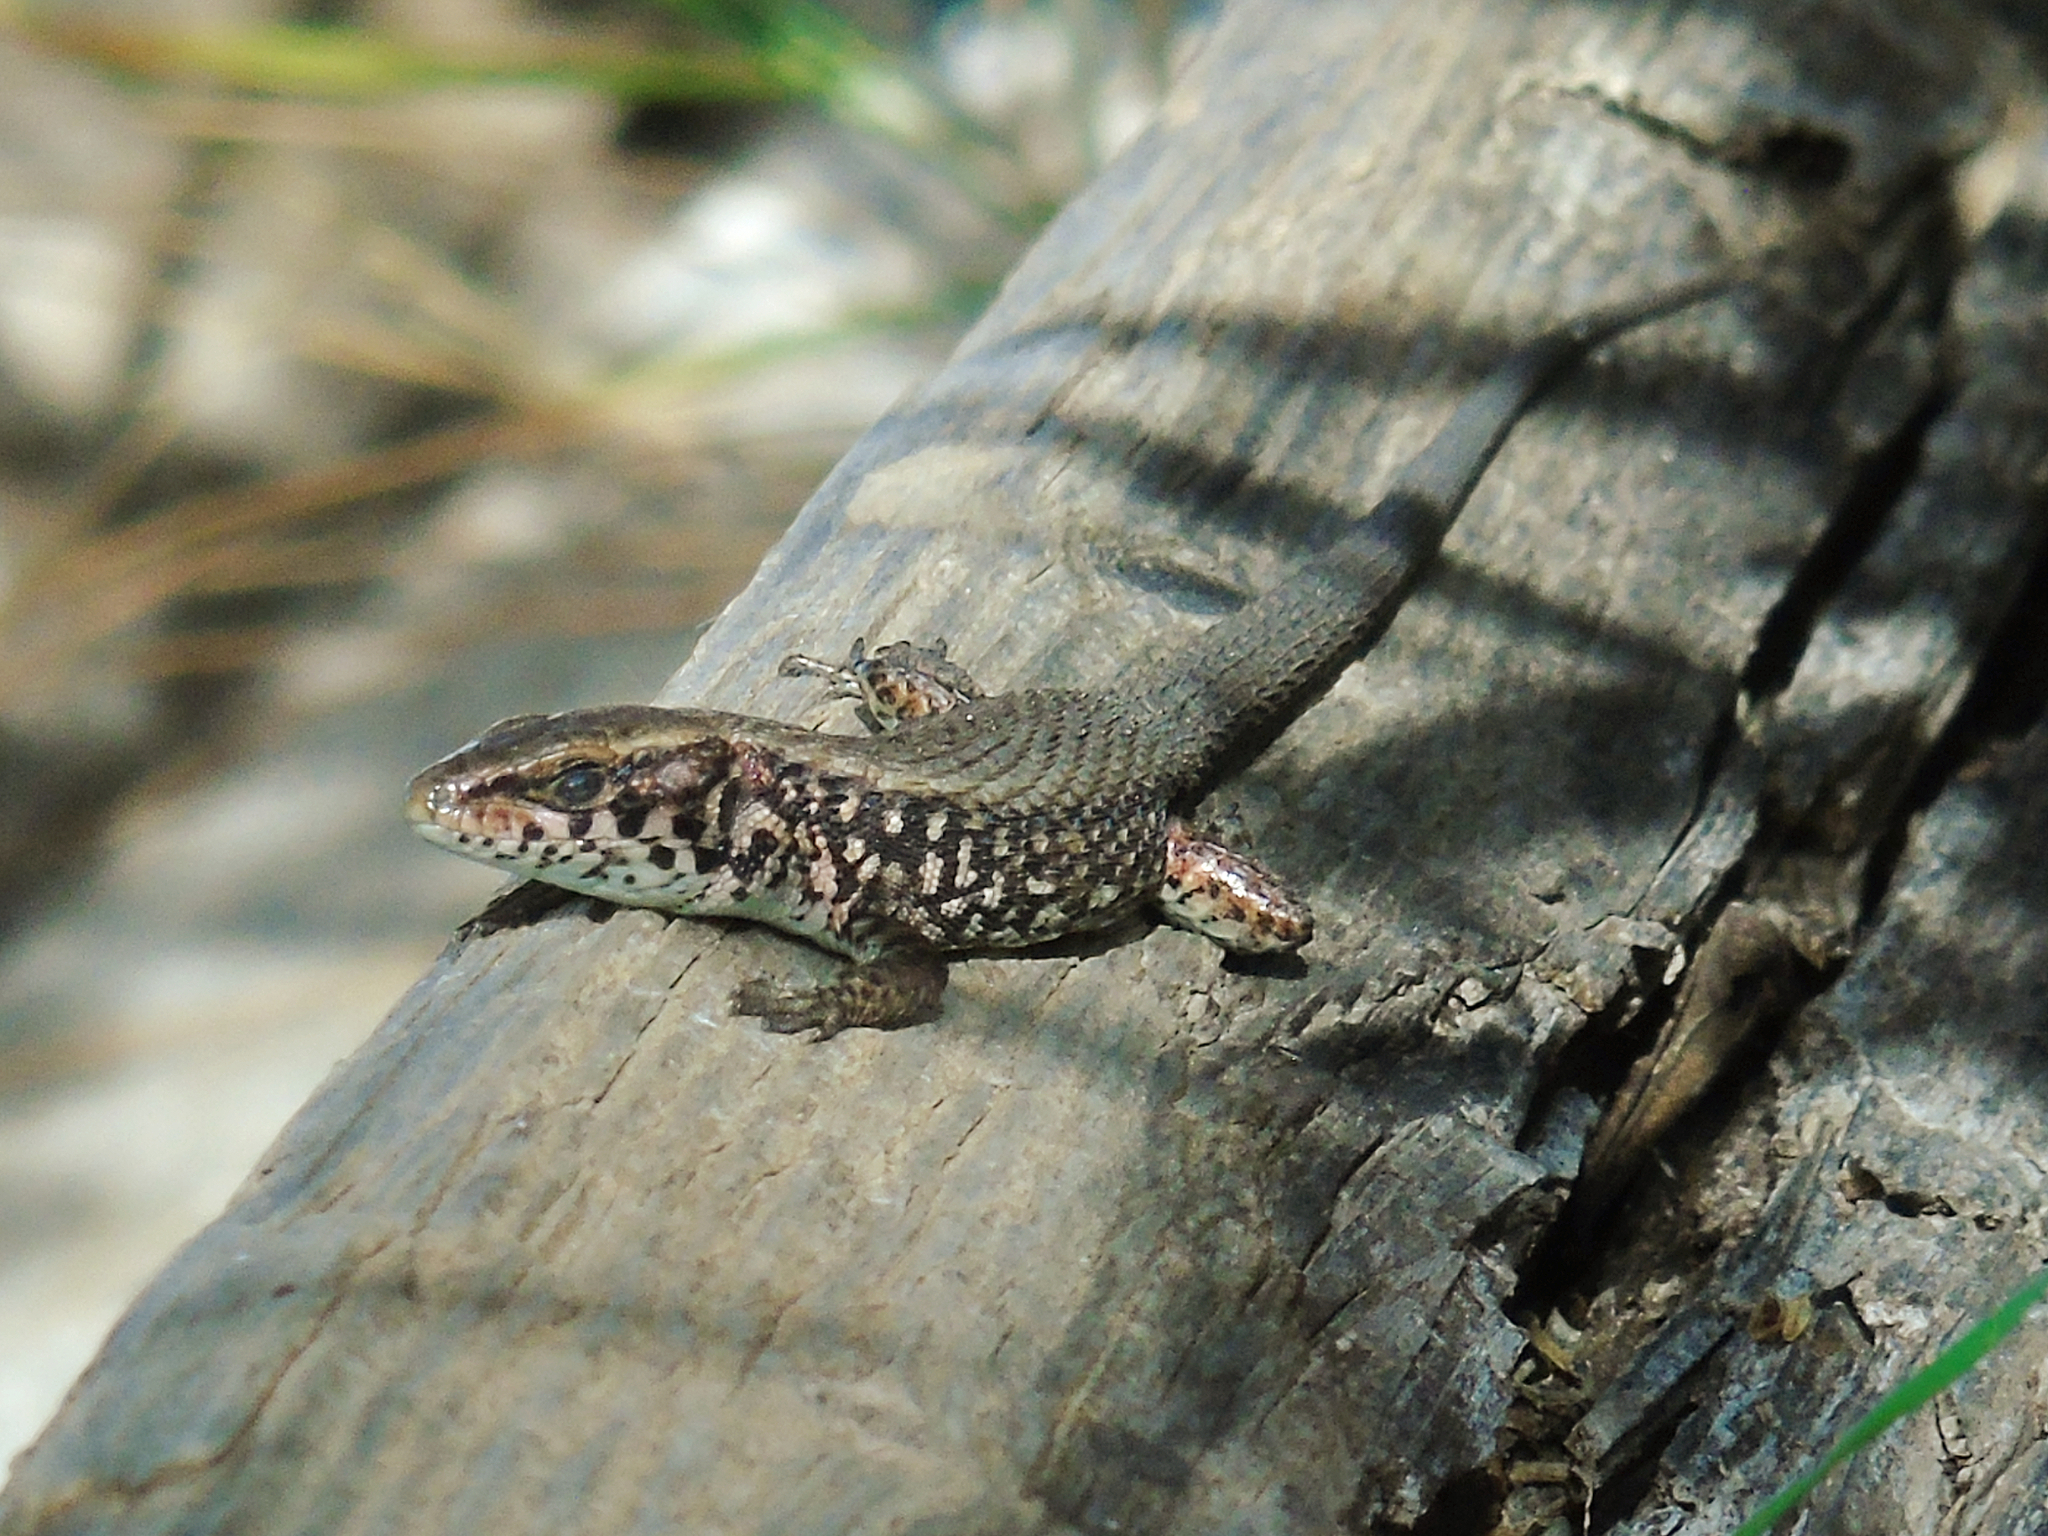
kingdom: Animalia
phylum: Chordata
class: Squamata
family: Lacertidae
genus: Algyroides
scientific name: Algyroides moreoticus
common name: Greek algyroides
